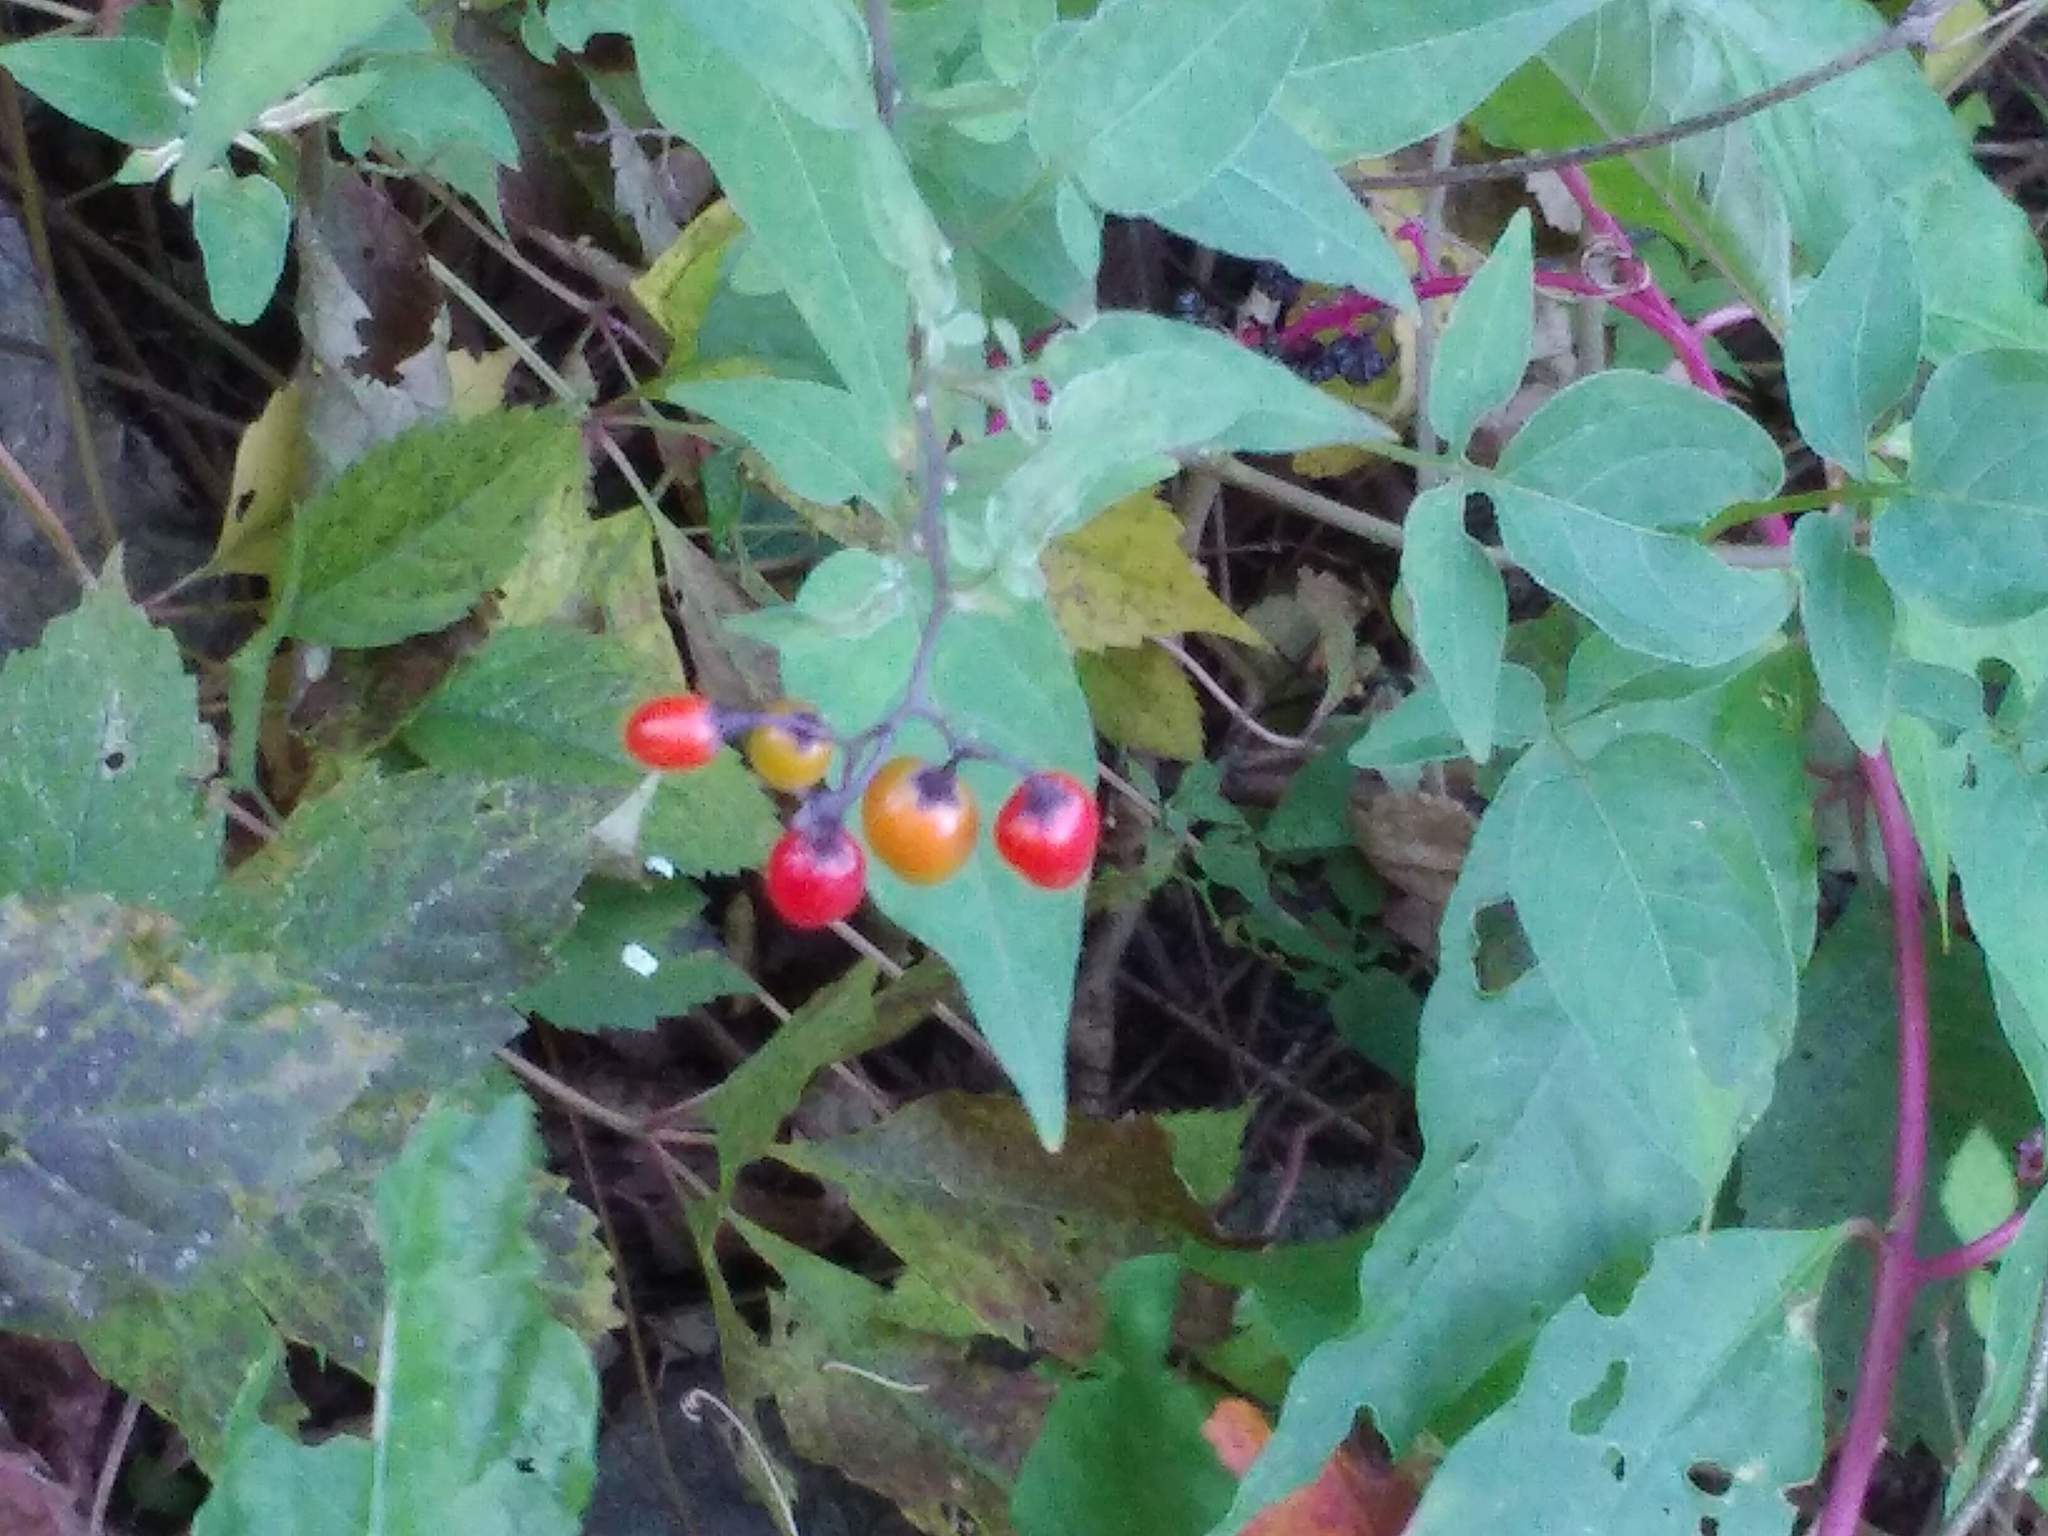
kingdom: Plantae
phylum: Tracheophyta
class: Magnoliopsida
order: Solanales
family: Solanaceae
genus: Solanum
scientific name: Solanum dulcamara
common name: Climbing nightshade
